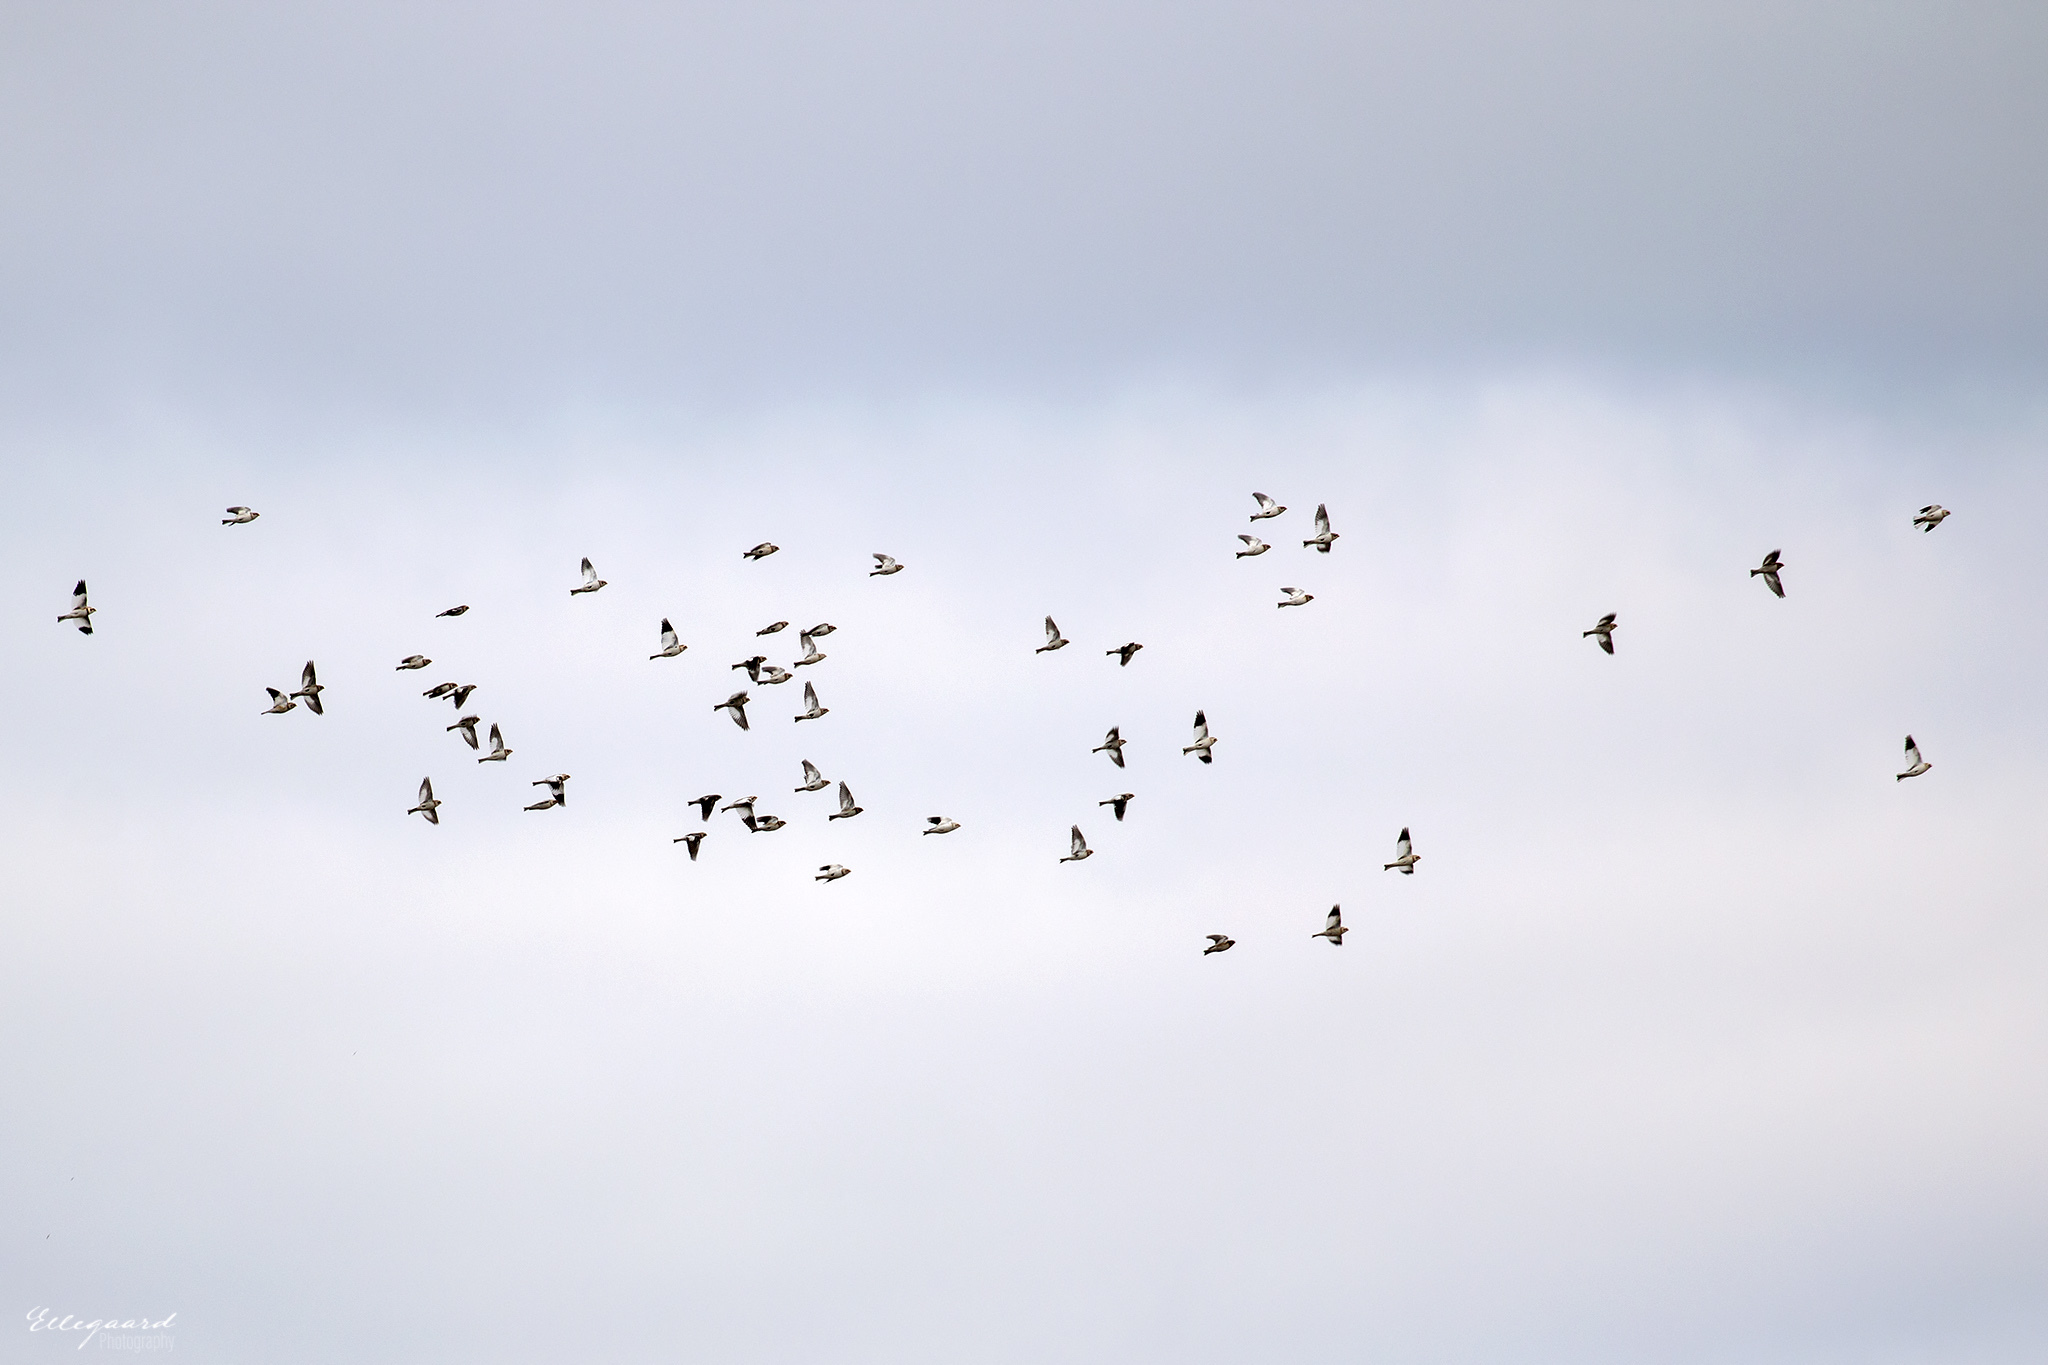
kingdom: Animalia
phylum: Chordata
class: Aves
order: Passeriformes
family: Calcariidae
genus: Plectrophenax
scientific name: Plectrophenax nivalis
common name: Snow bunting
